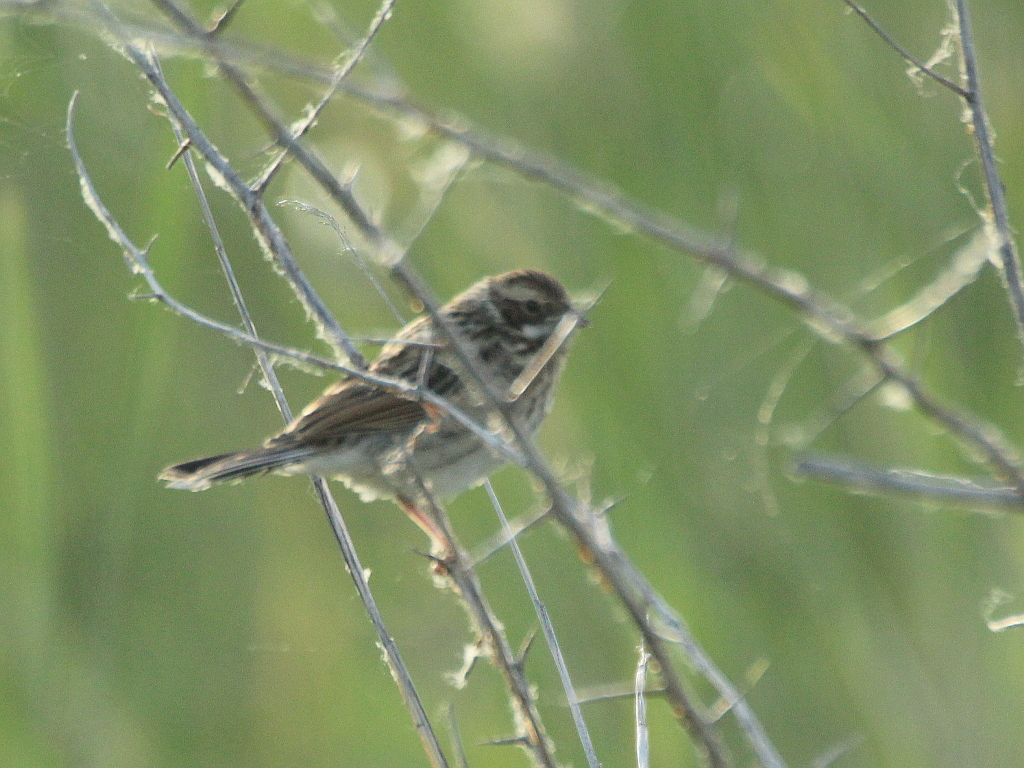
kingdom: Animalia
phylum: Chordata
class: Aves
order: Passeriformes
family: Emberizidae
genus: Emberiza
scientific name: Emberiza schoeniclus
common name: Reed bunting
